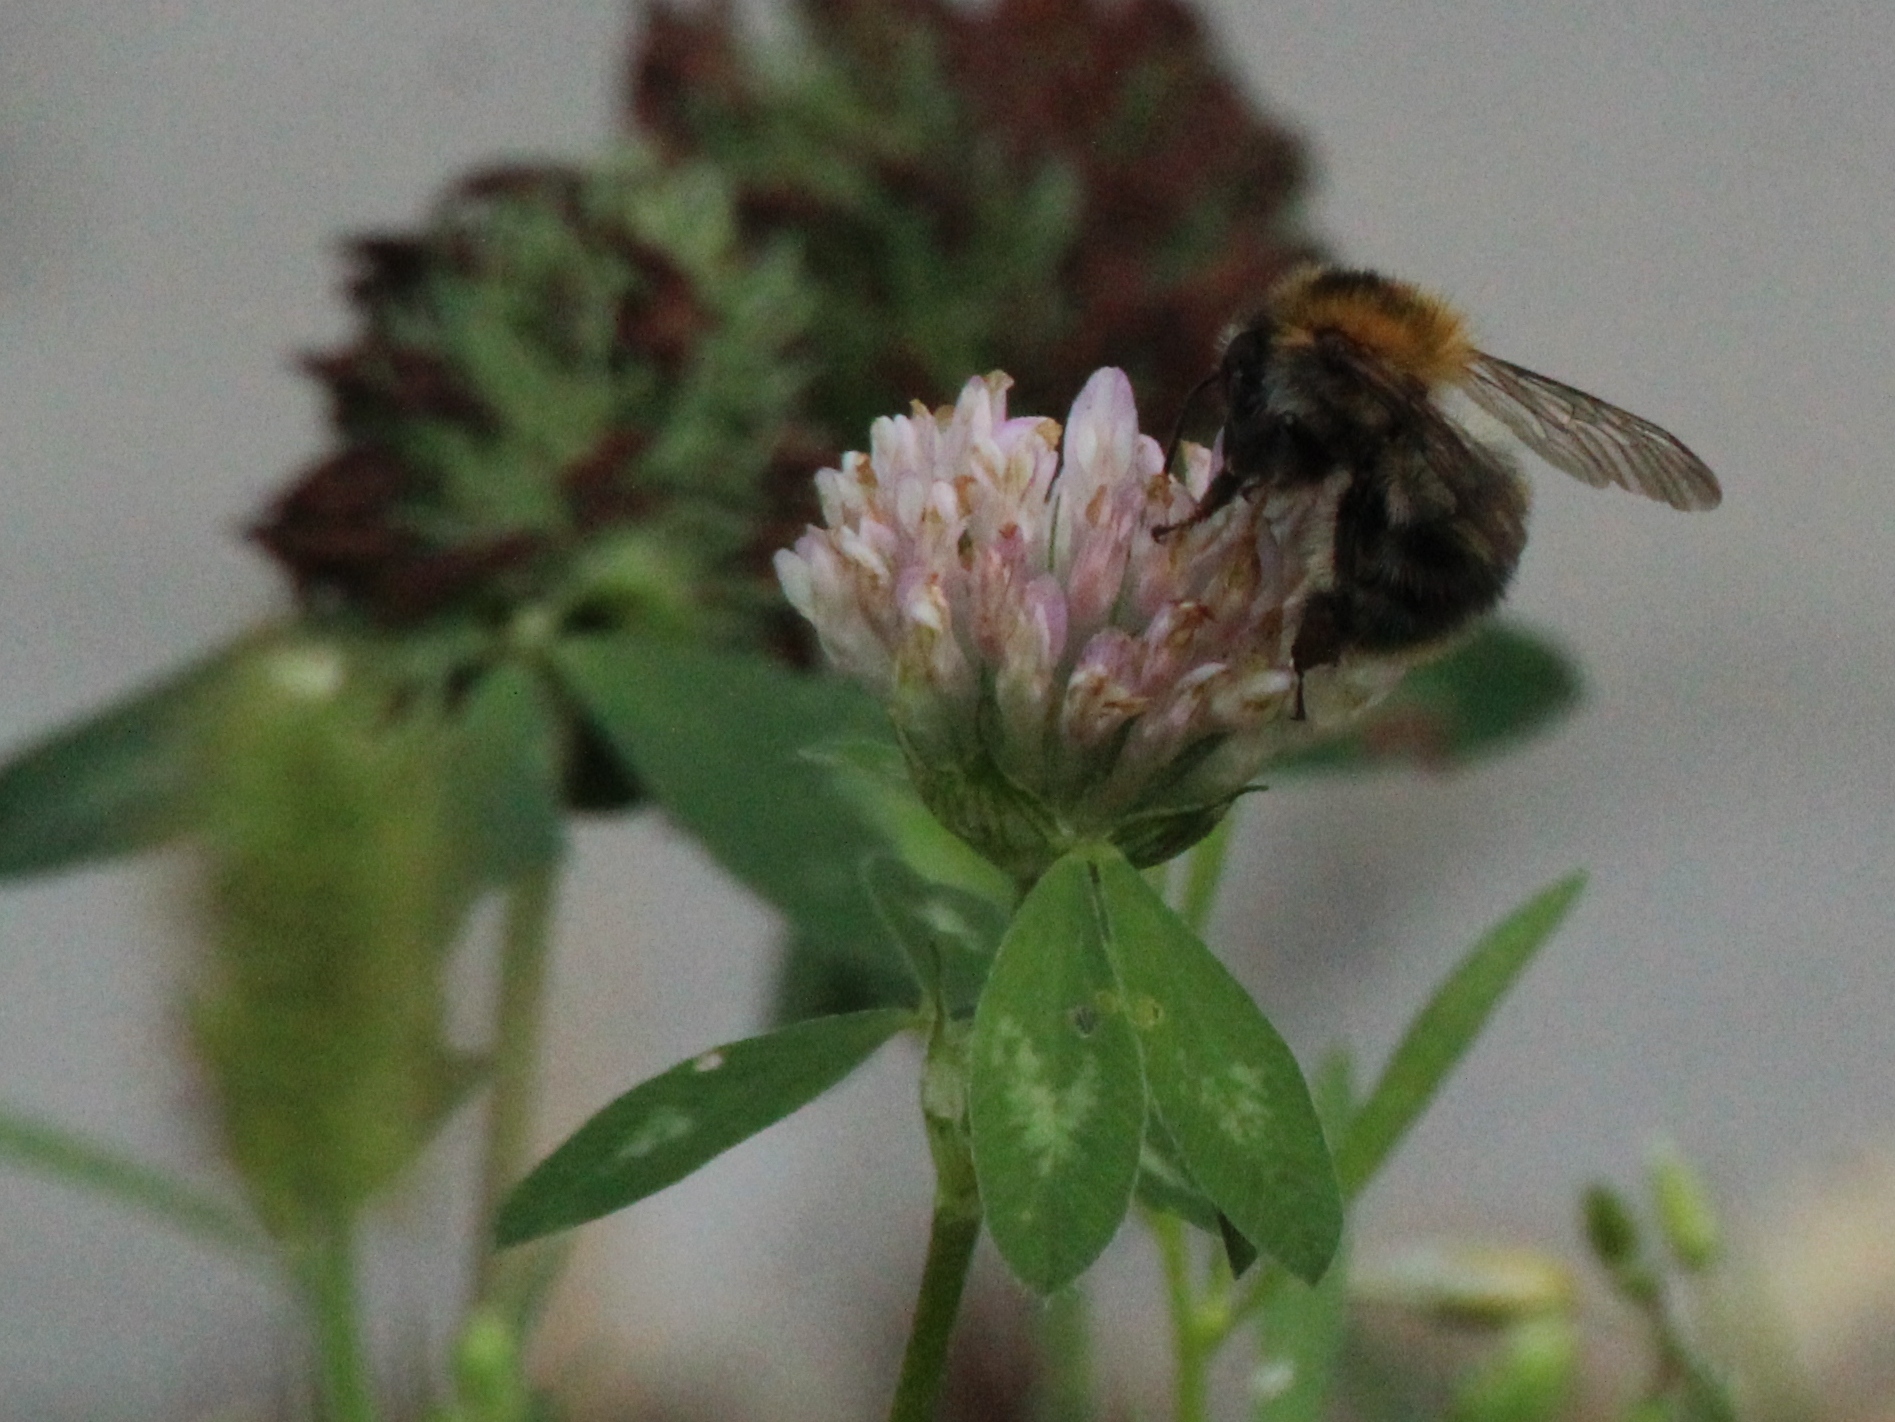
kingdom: Animalia
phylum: Arthropoda
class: Insecta
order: Hymenoptera
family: Apidae
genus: Bombus
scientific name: Bombus pascuorum
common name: Common carder bee
